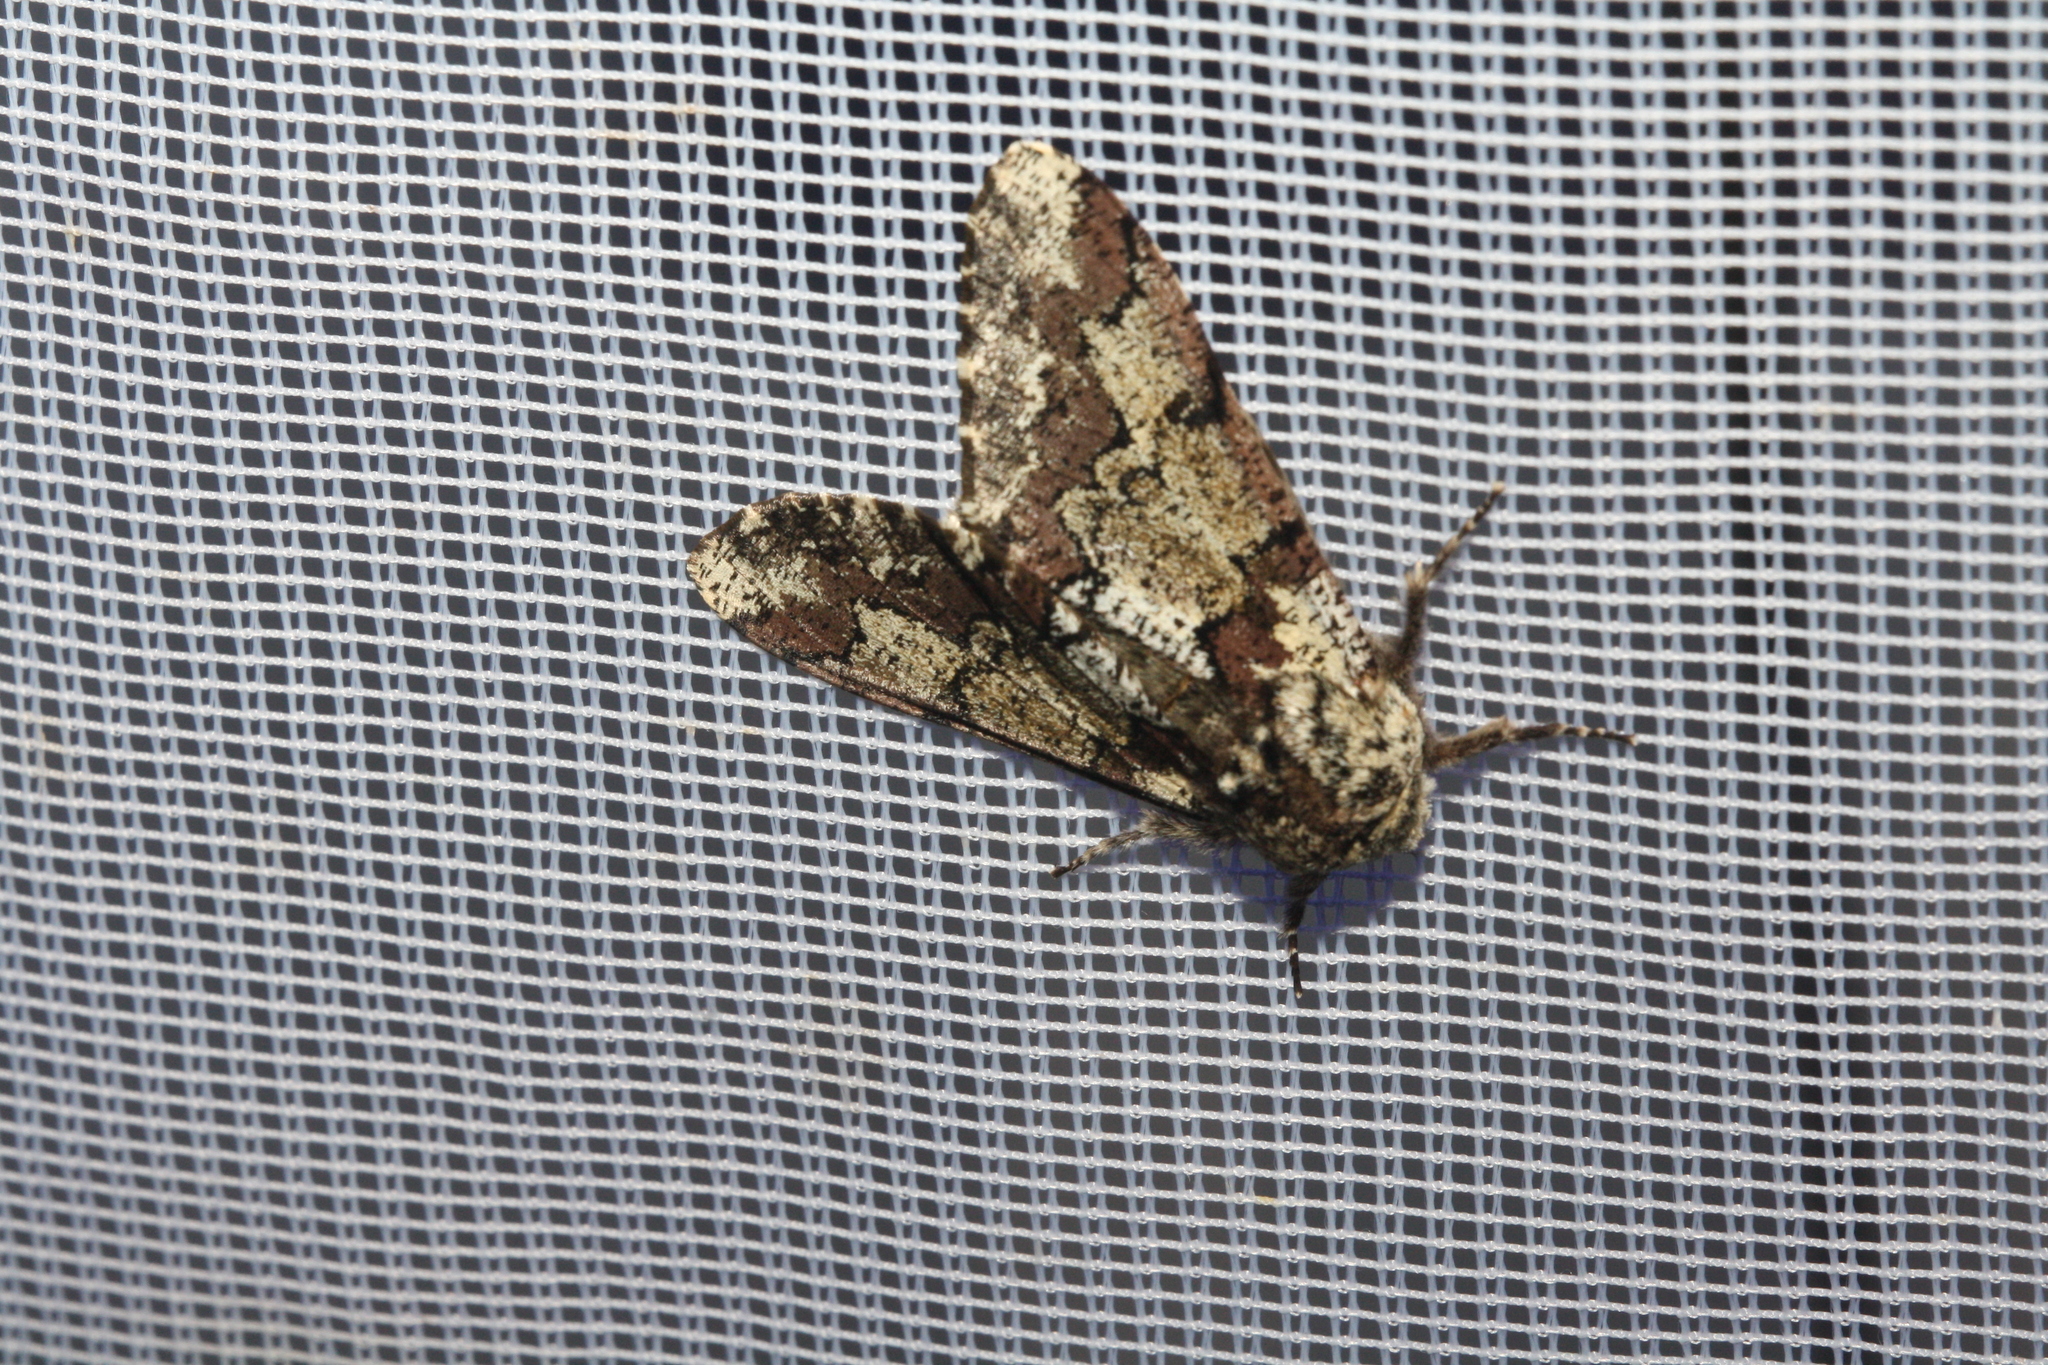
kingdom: Animalia
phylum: Arthropoda
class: Insecta
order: Lepidoptera
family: Geometridae
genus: Biston
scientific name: Biston strataria
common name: Oak beauty
